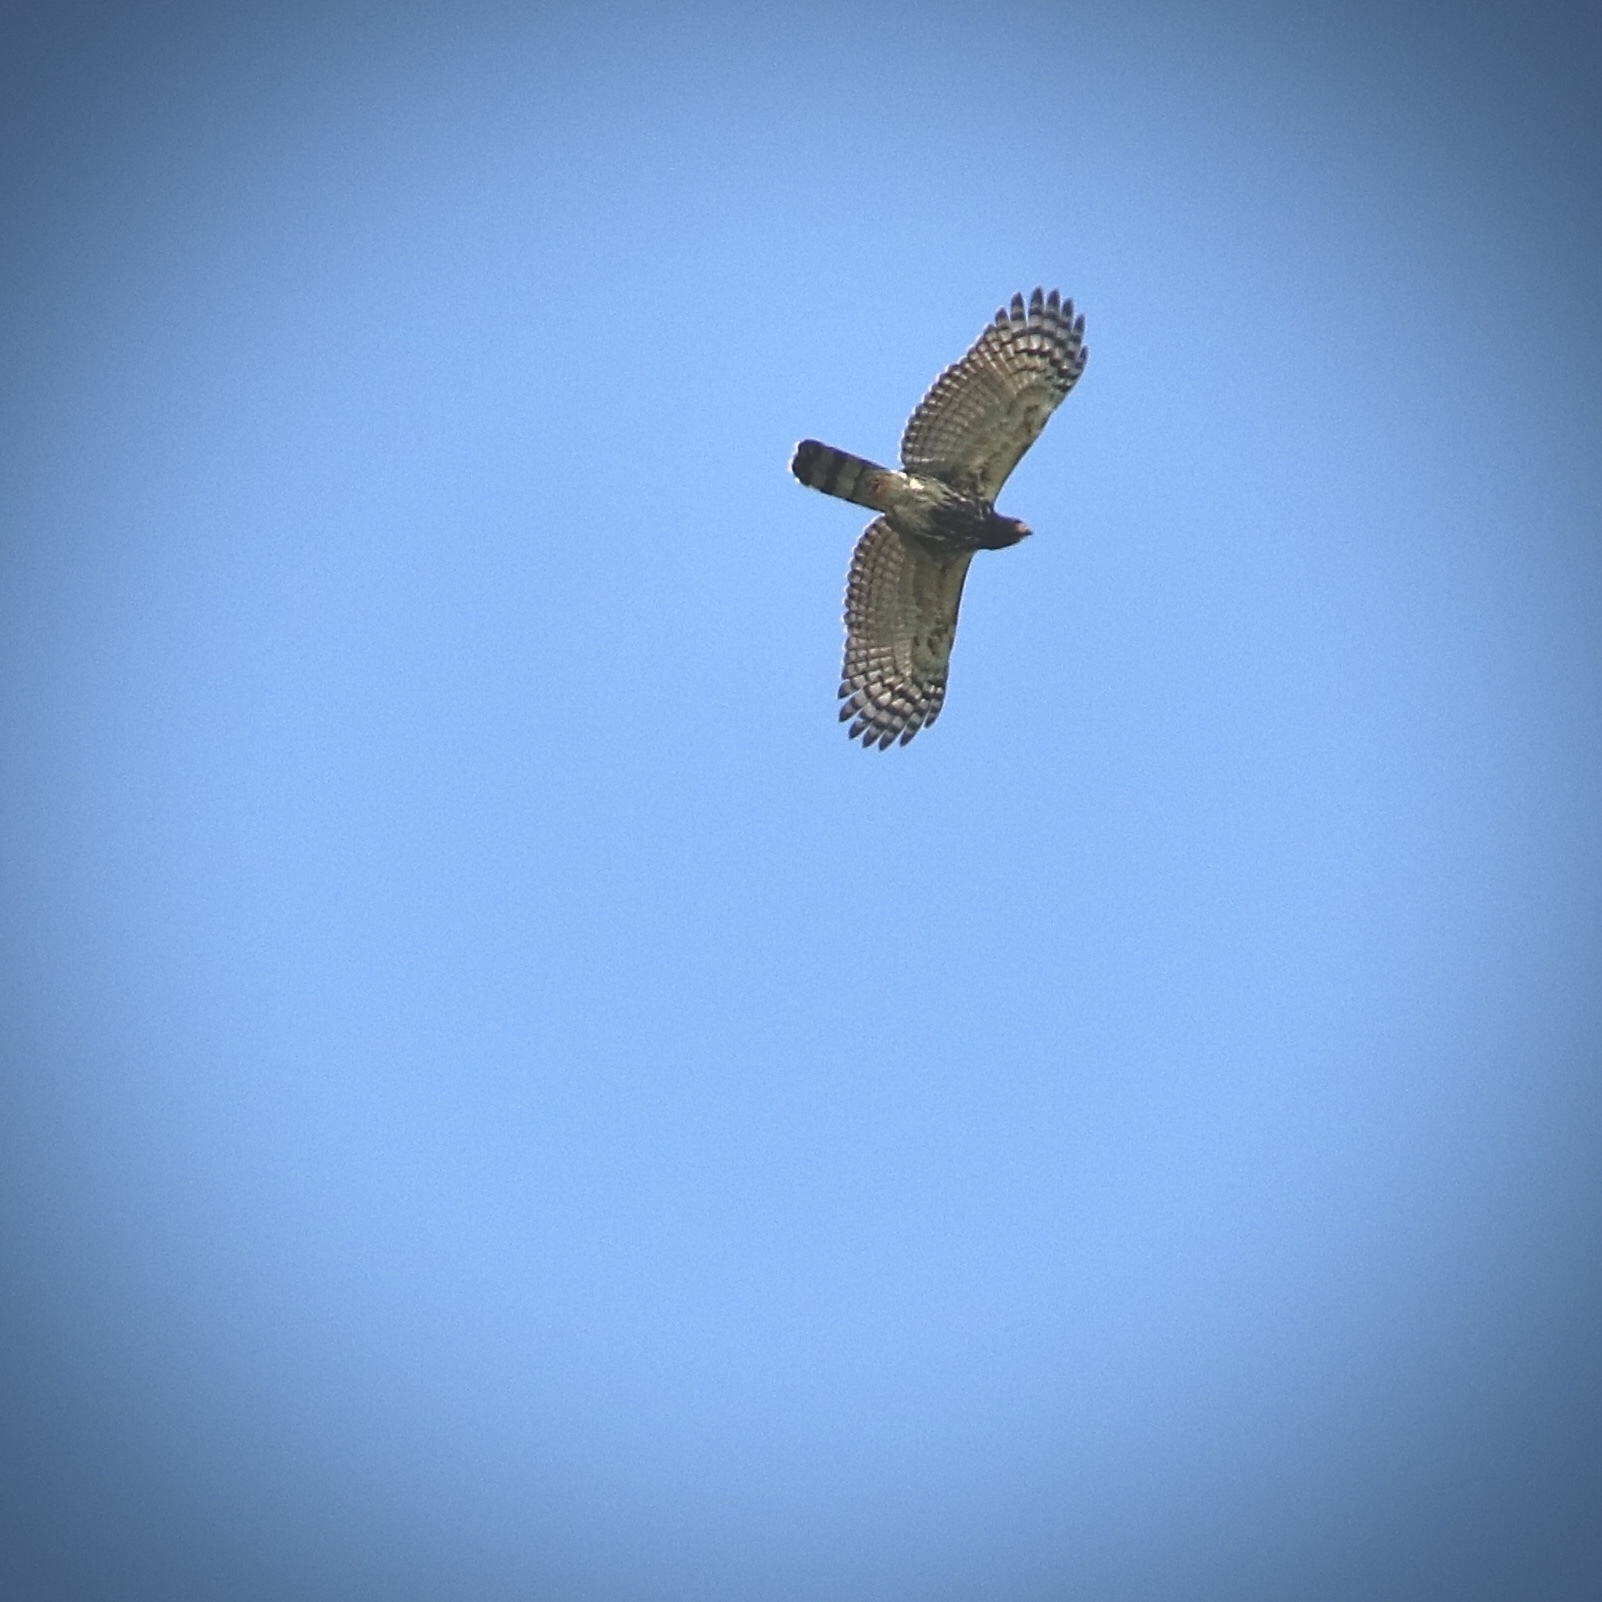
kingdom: Animalia
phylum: Chordata
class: Aves
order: Accipitriformes
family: Accipitridae
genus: Leptodon
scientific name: Leptodon cayanensis
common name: Gray-headed kite
